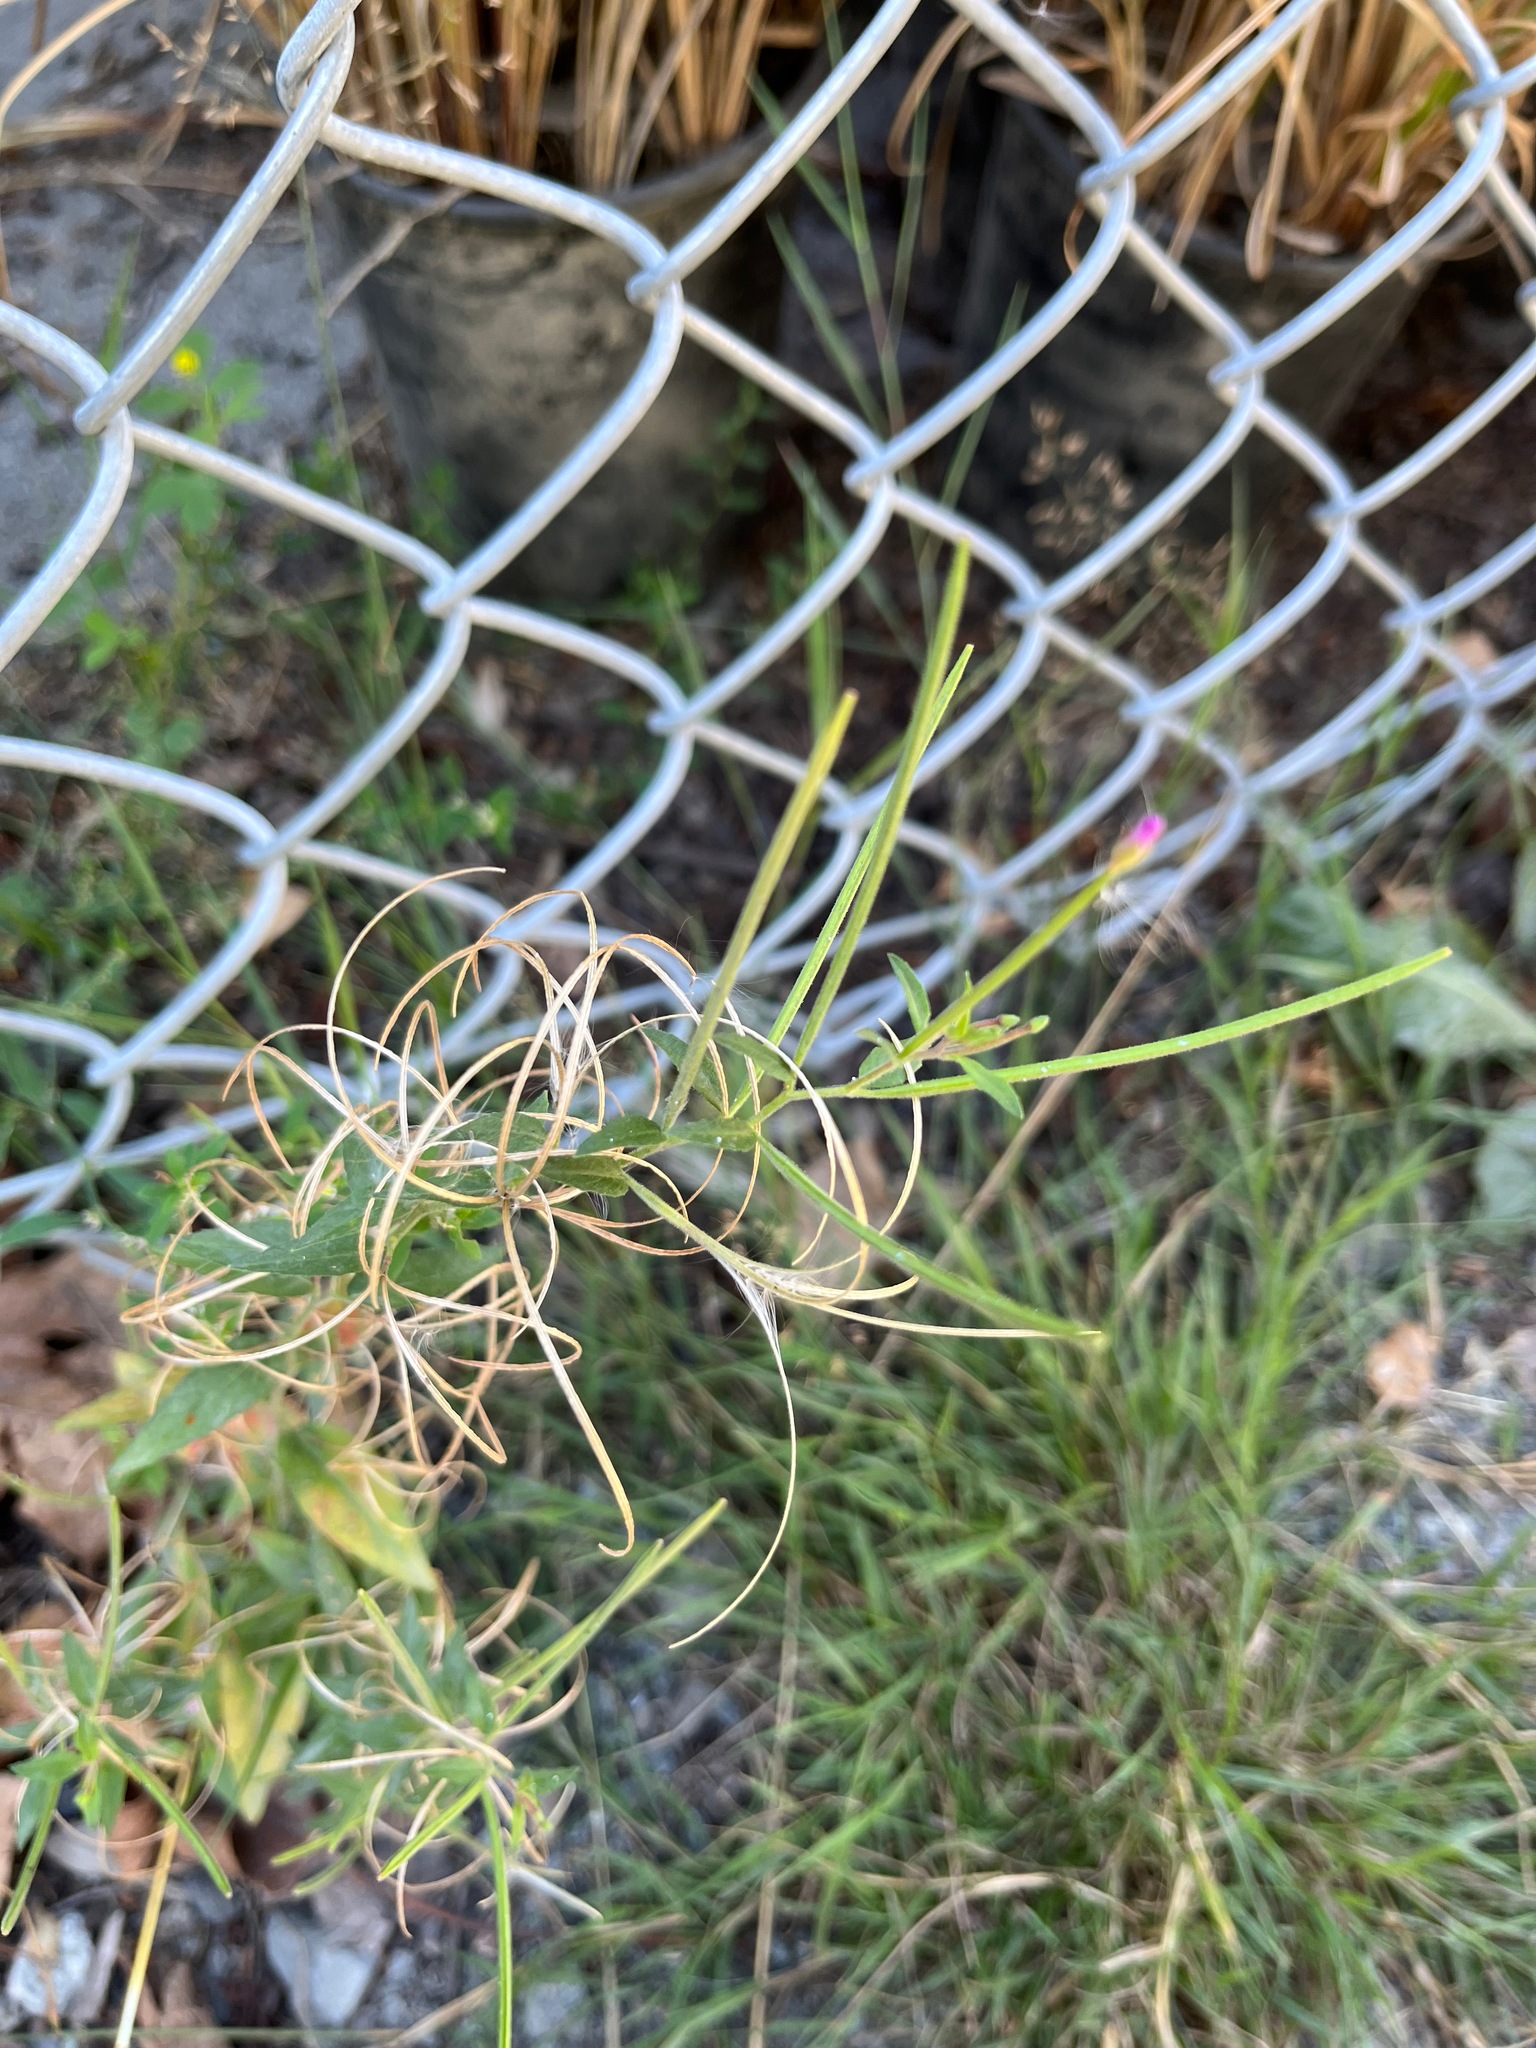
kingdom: Plantae
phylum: Tracheophyta
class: Magnoliopsida
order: Myrtales
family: Onagraceae
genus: Epilobium
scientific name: Epilobium ciliatum
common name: American willowherb
